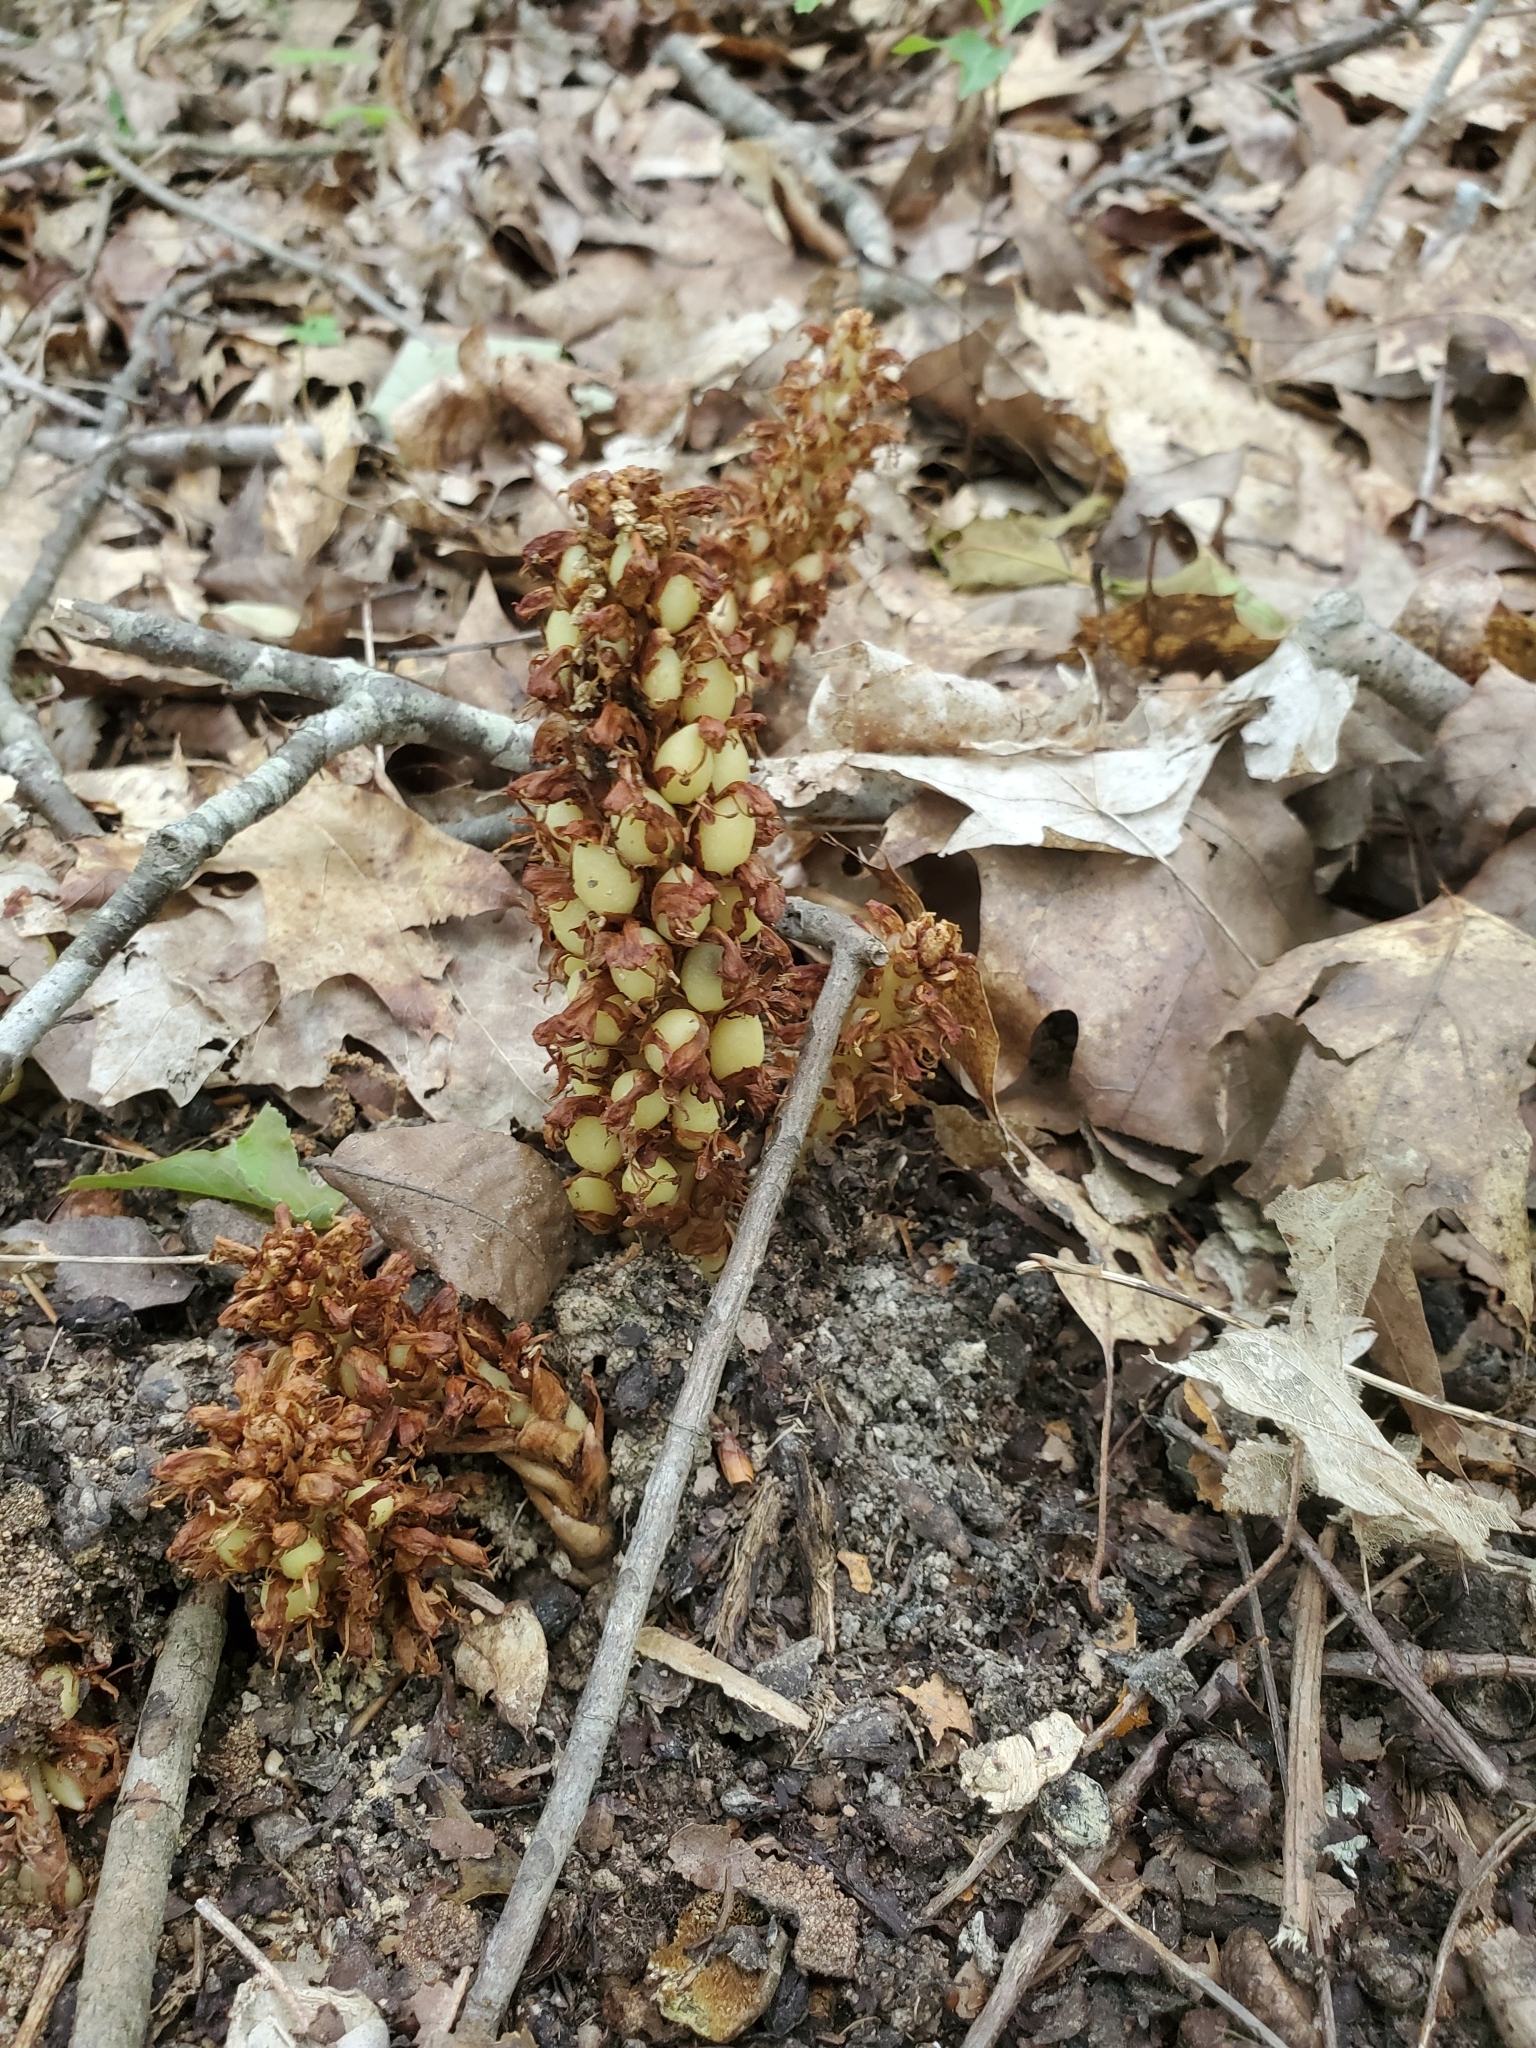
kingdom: Plantae
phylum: Tracheophyta
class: Magnoliopsida
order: Lamiales
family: Orobanchaceae
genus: Conopholis
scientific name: Conopholis americana
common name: American cancer-root
